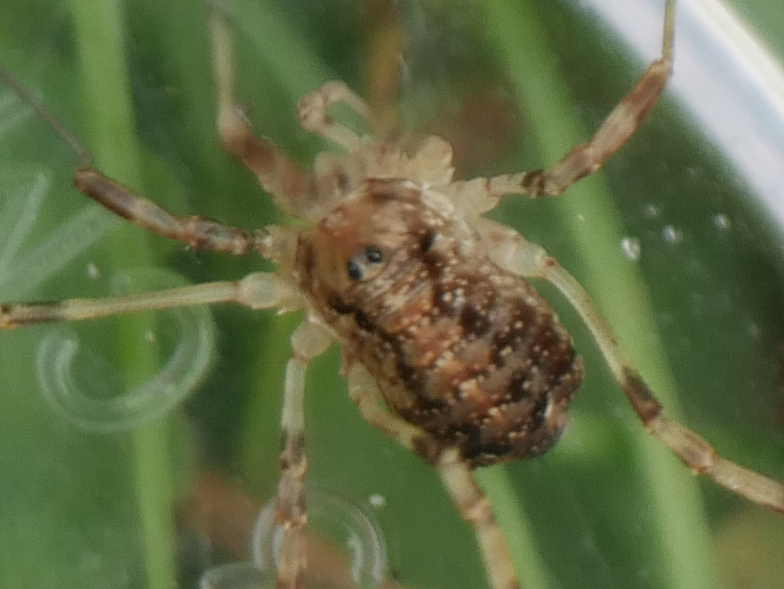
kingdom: Animalia
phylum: Arthropoda
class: Arachnida
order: Opiliones
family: Phalangiidae
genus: Paroligolophus
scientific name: Paroligolophus agrestis
